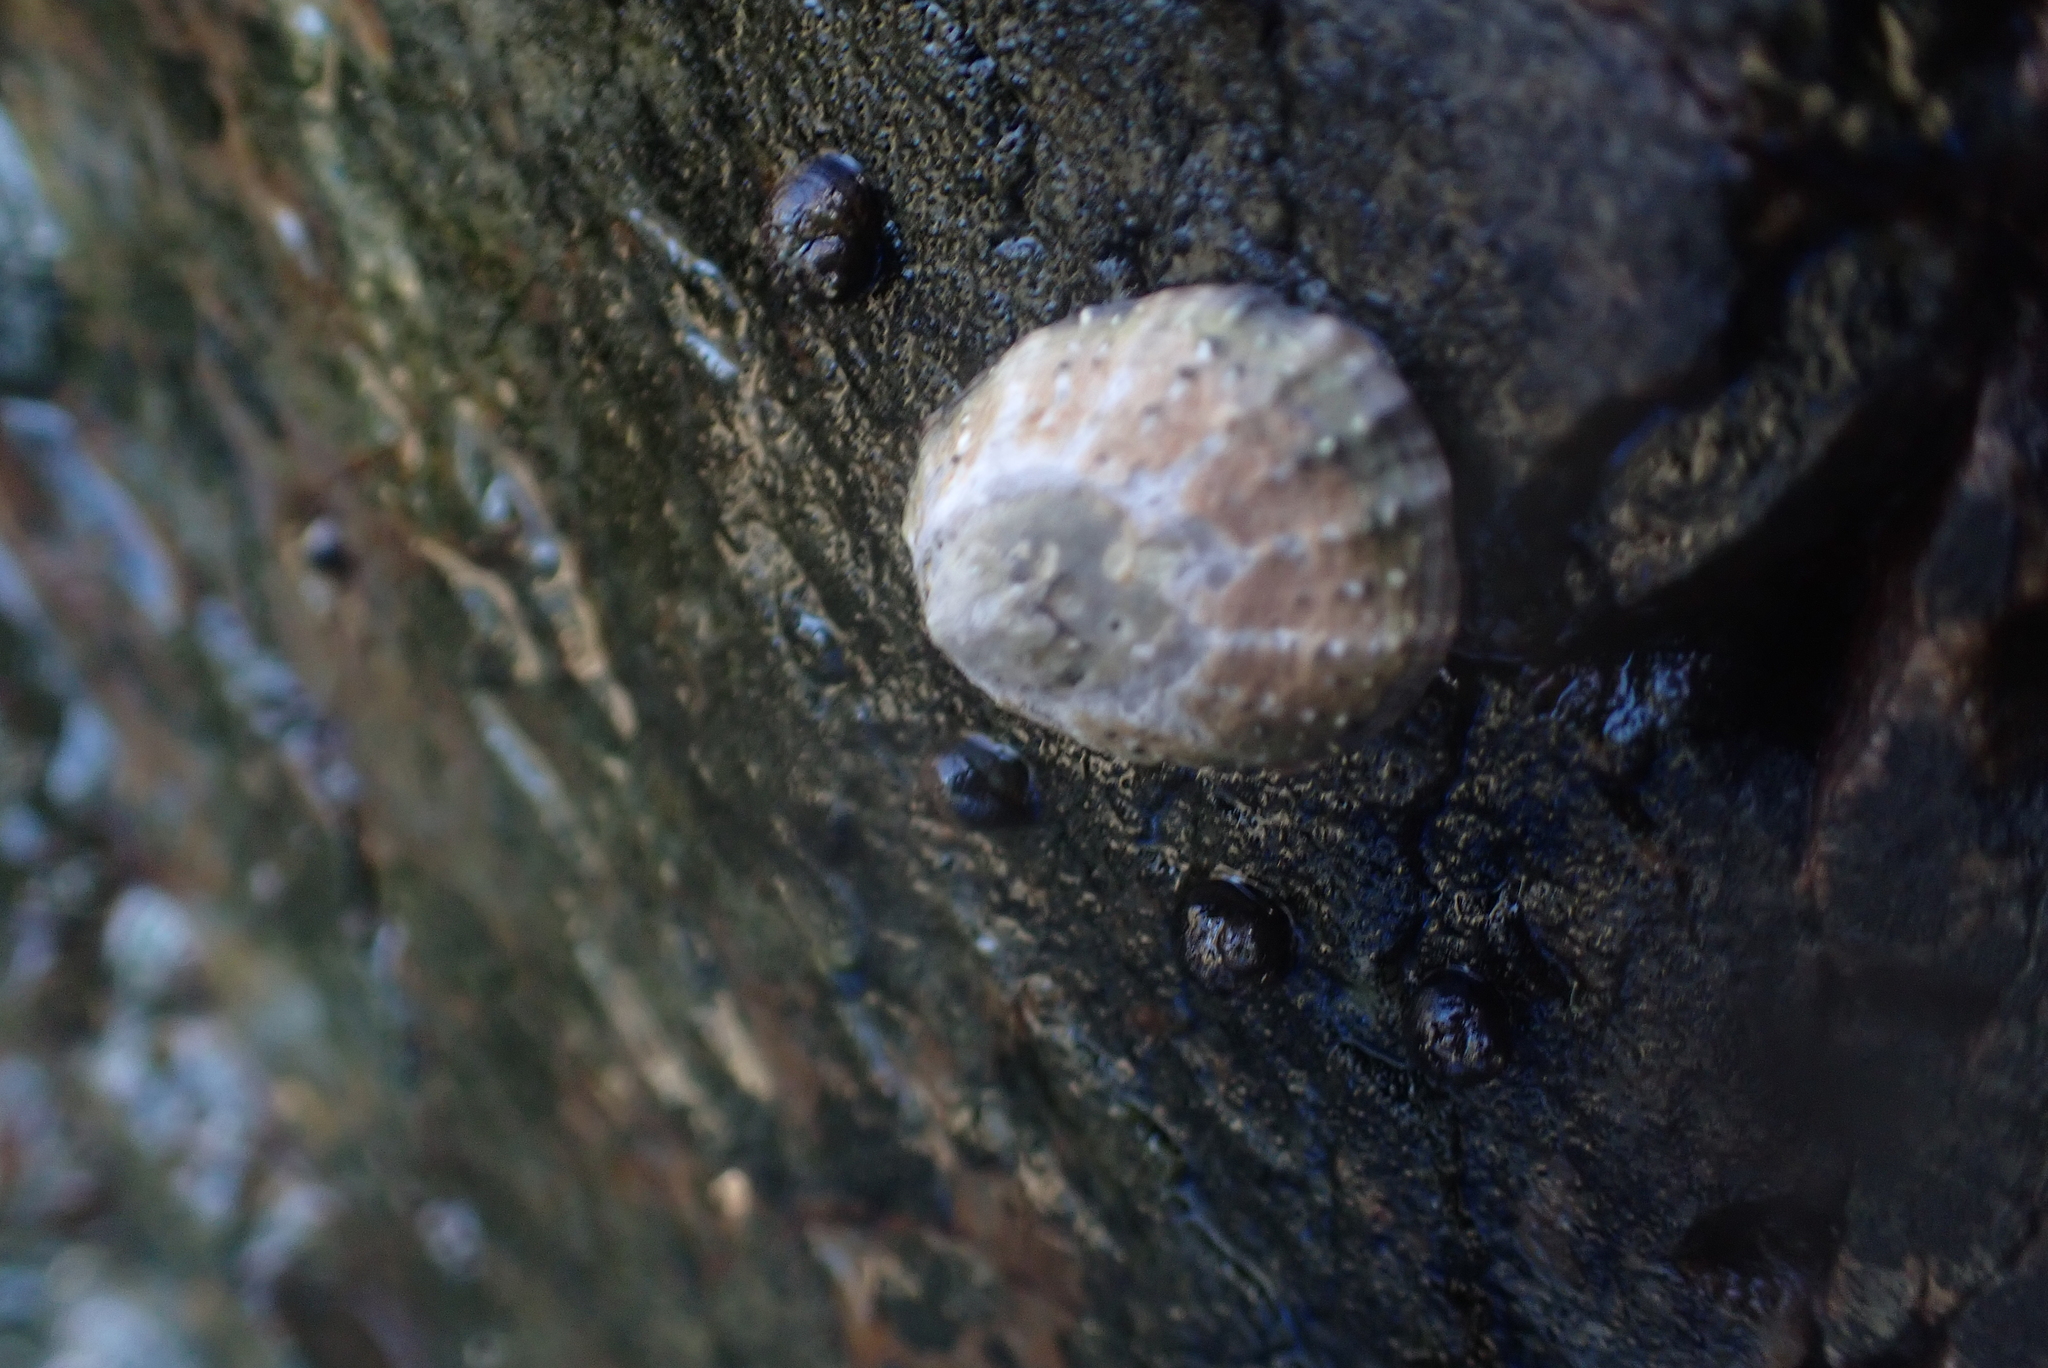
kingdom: Animalia
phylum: Mollusca
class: Gastropoda
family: Patellidae
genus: Scutellastra
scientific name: Scutellastra granularis
